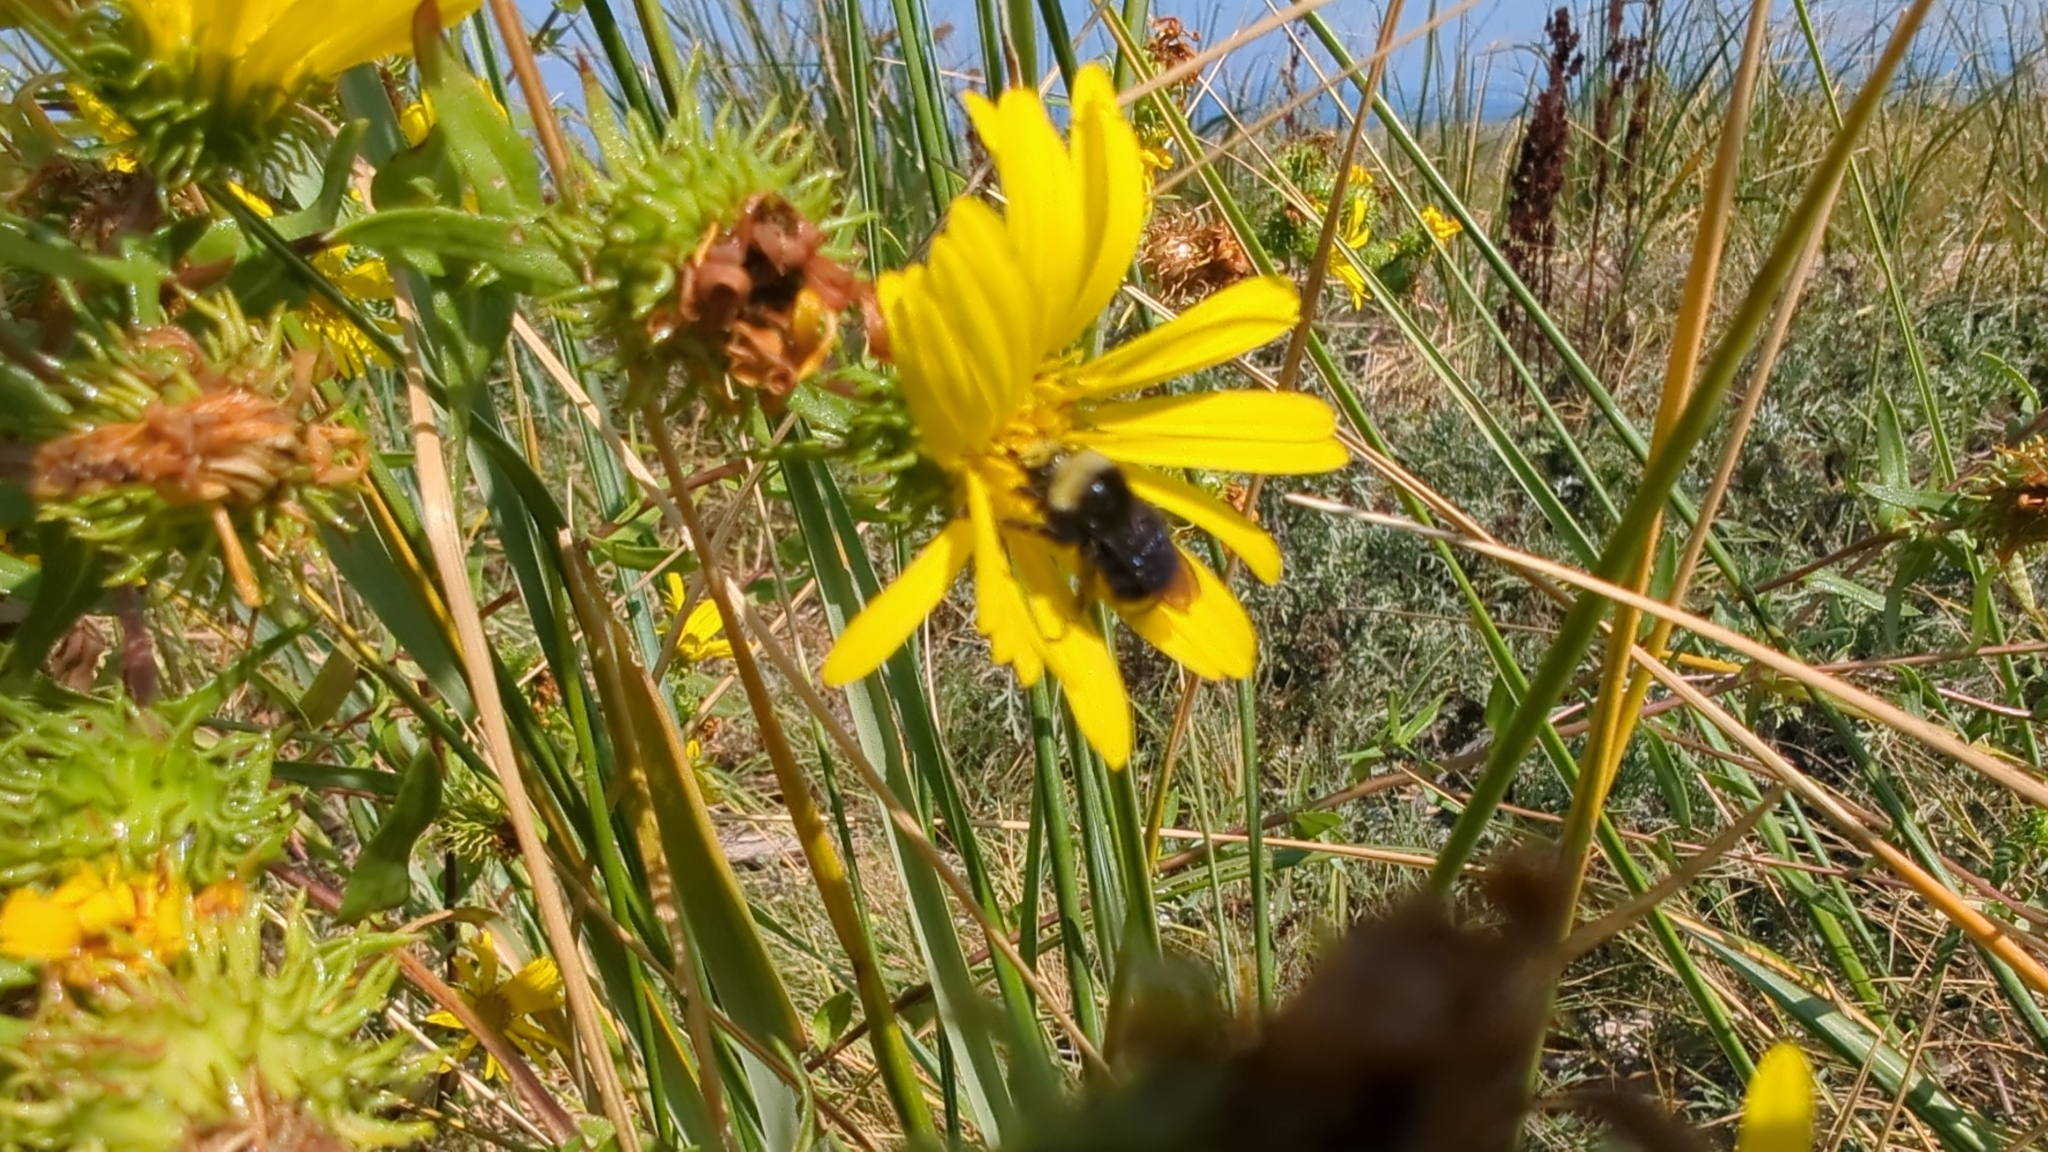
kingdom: Animalia
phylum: Arthropoda
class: Insecta
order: Hymenoptera
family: Apidae
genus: Bombus
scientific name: Bombus vosnesenskii
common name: Vosnesensky bumble bee
